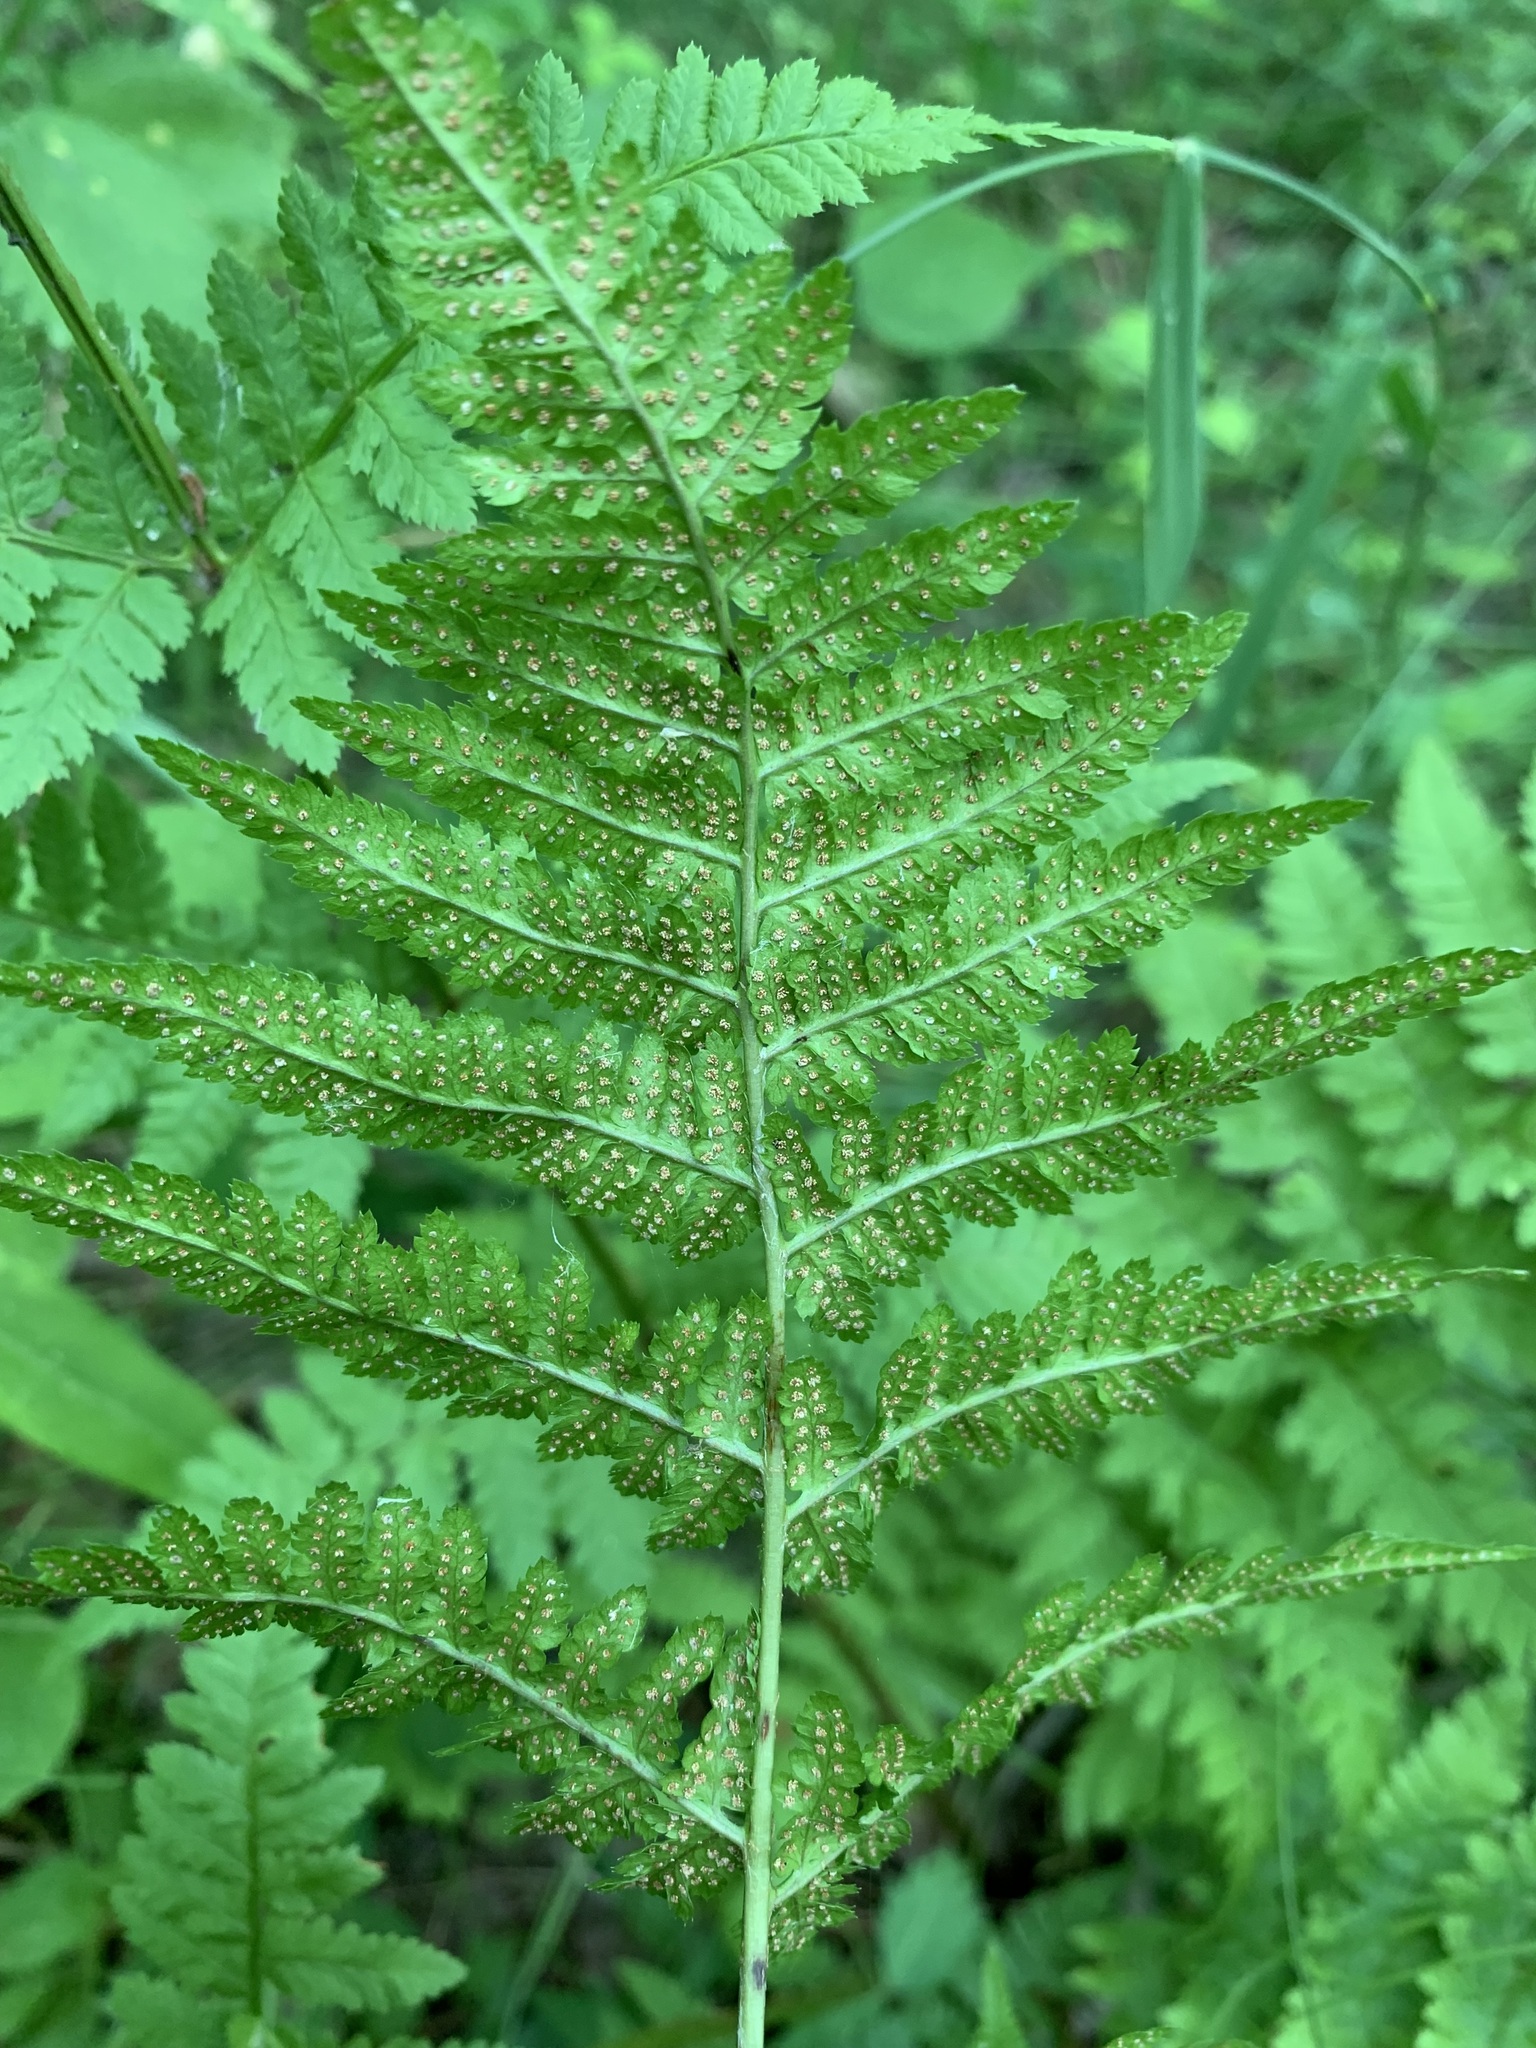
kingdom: Plantae
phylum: Tracheophyta
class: Polypodiopsida
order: Polypodiales
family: Dryopteridaceae
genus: Dryopteris
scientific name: Dryopteris carthusiana
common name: Narrow buckler-fern
